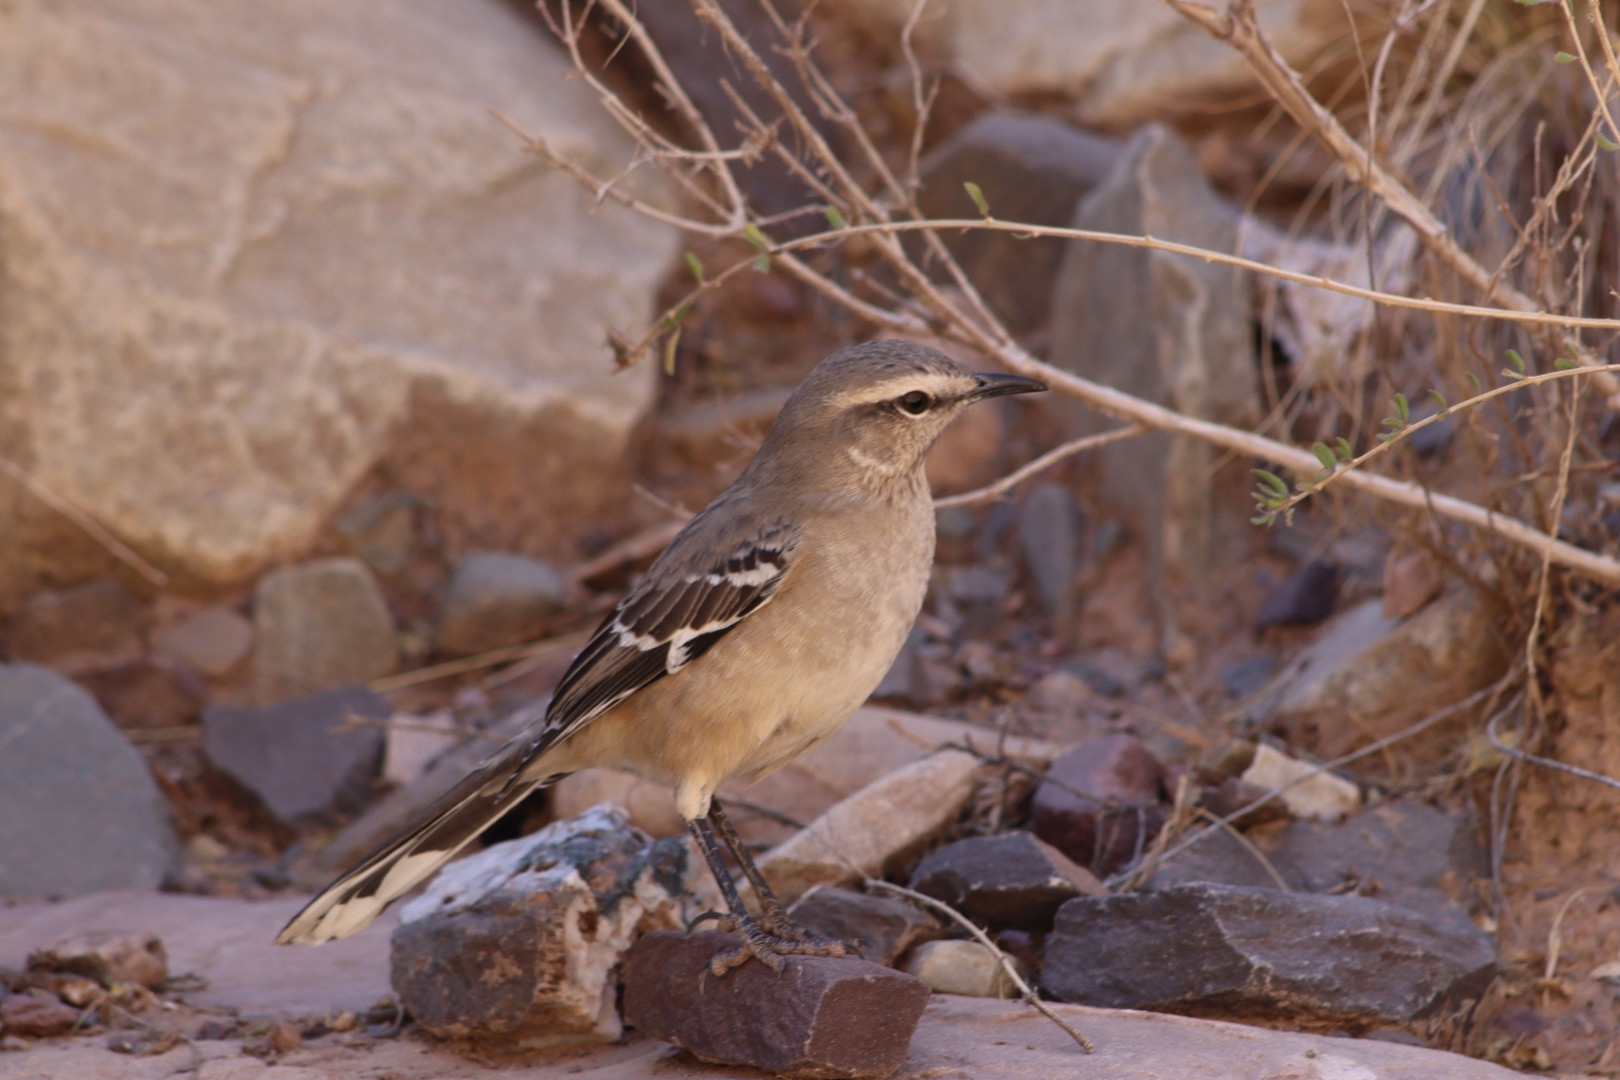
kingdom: Animalia
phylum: Chordata
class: Aves
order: Passeriformes
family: Mimidae
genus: Mimus
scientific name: Mimus patagonicus
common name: Patagonian mockingbird
